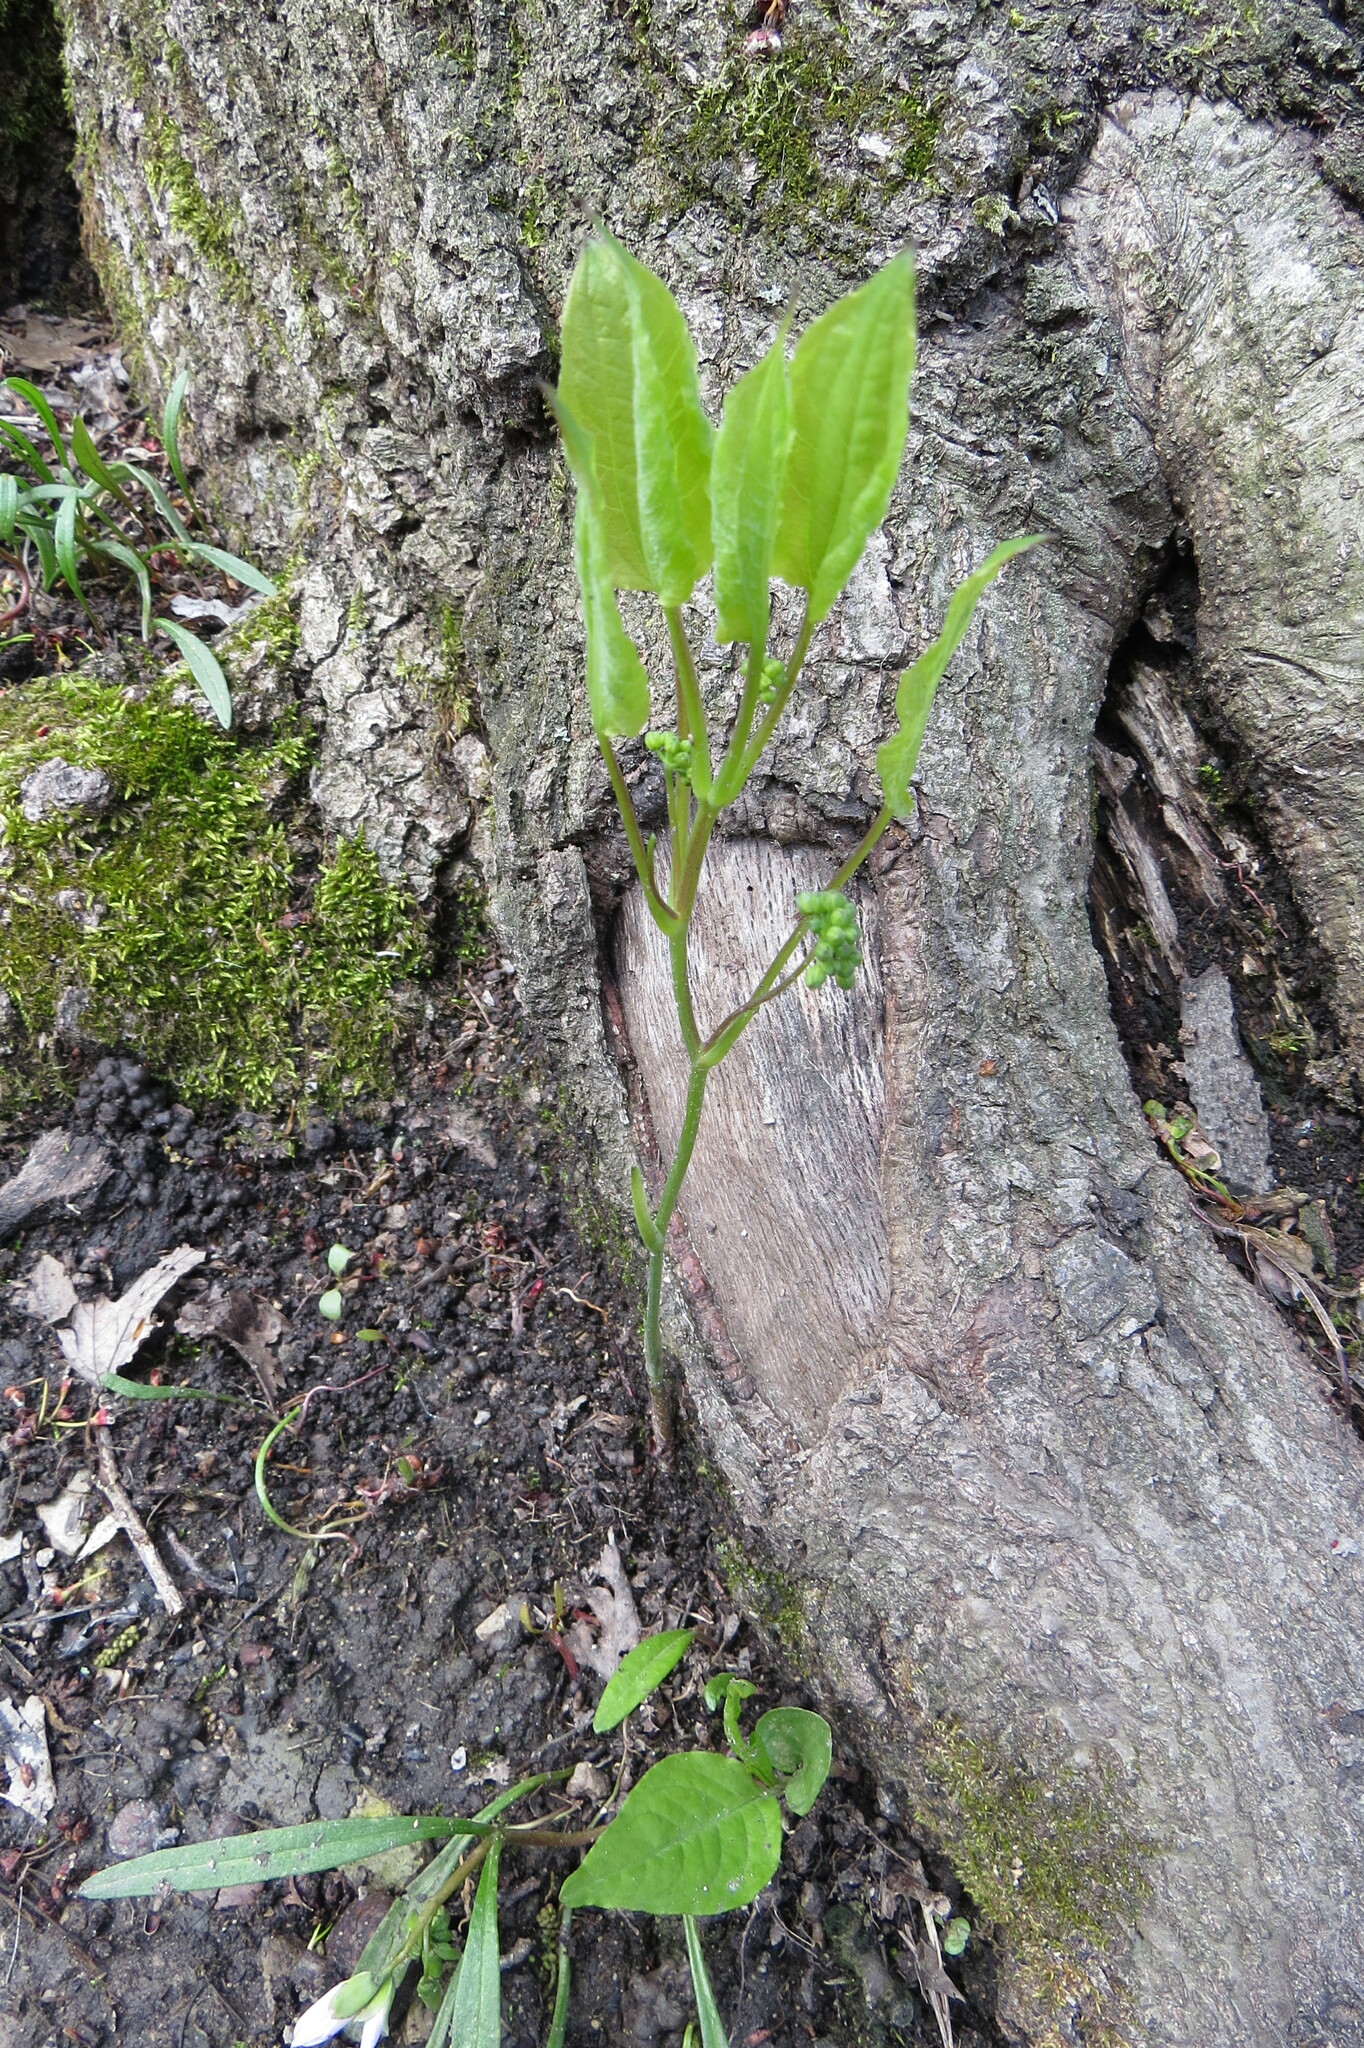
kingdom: Plantae
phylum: Tracheophyta
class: Liliopsida
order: Liliales
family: Smilacaceae
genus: Smilax
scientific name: Smilax ecirrhata
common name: Upright carrionflower
